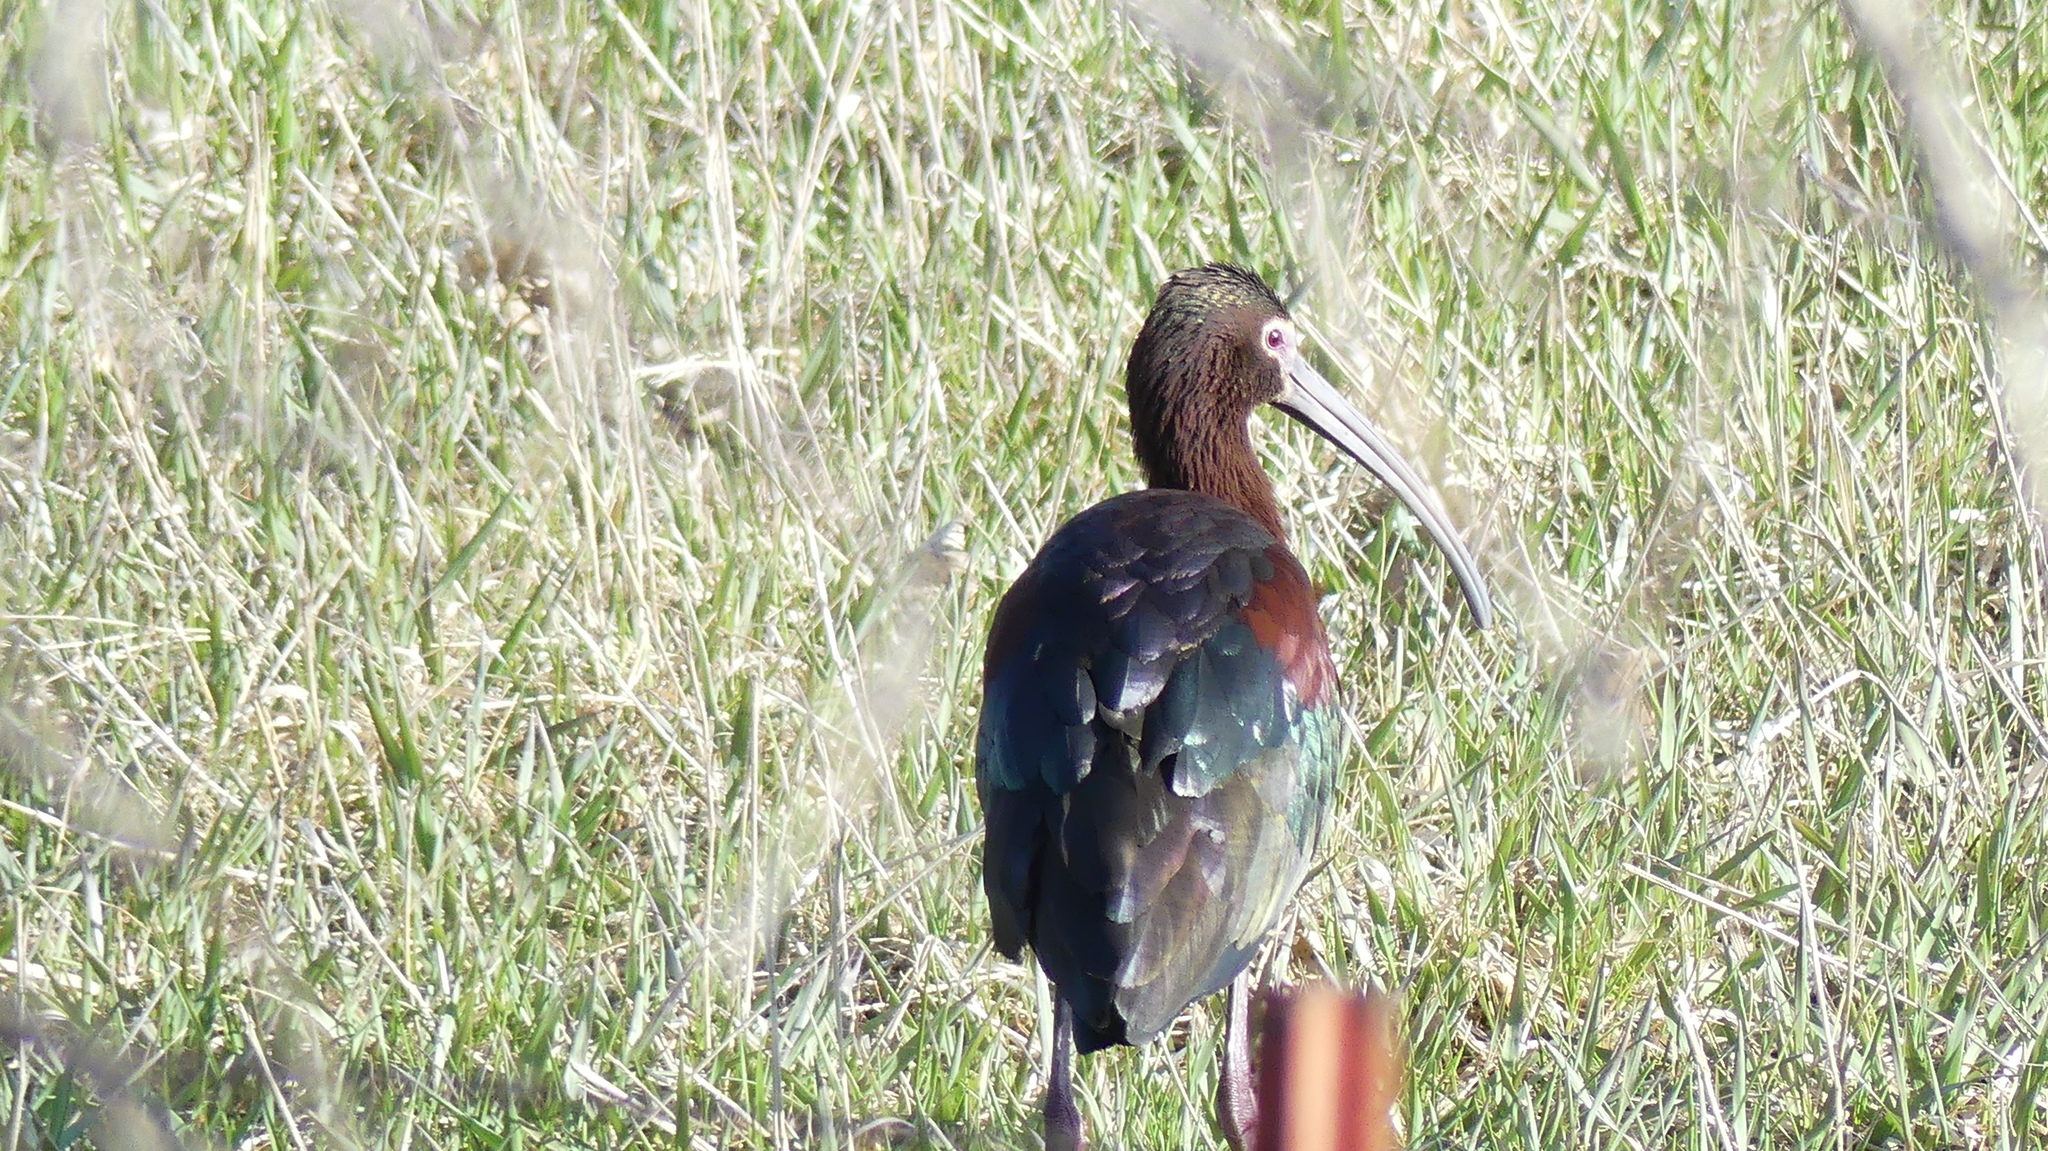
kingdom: Animalia
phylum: Chordata
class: Aves
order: Pelecaniformes
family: Threskiornithidae
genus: Plegadis
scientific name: Plegadis chihi
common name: White-faced ibis
